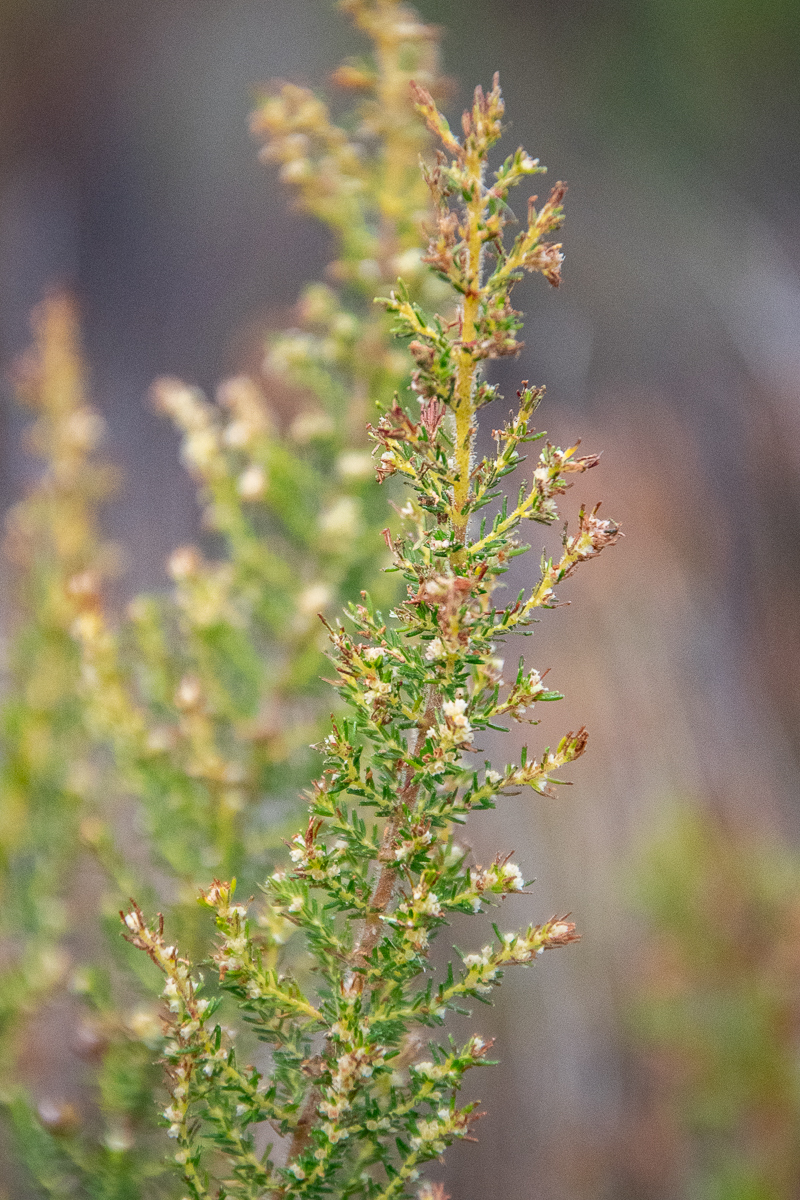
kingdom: Plantae
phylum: Tracheophyta
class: Magnoliopsida
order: Ericales
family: Ericaceae
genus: Erica
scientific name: Erica muscosa
